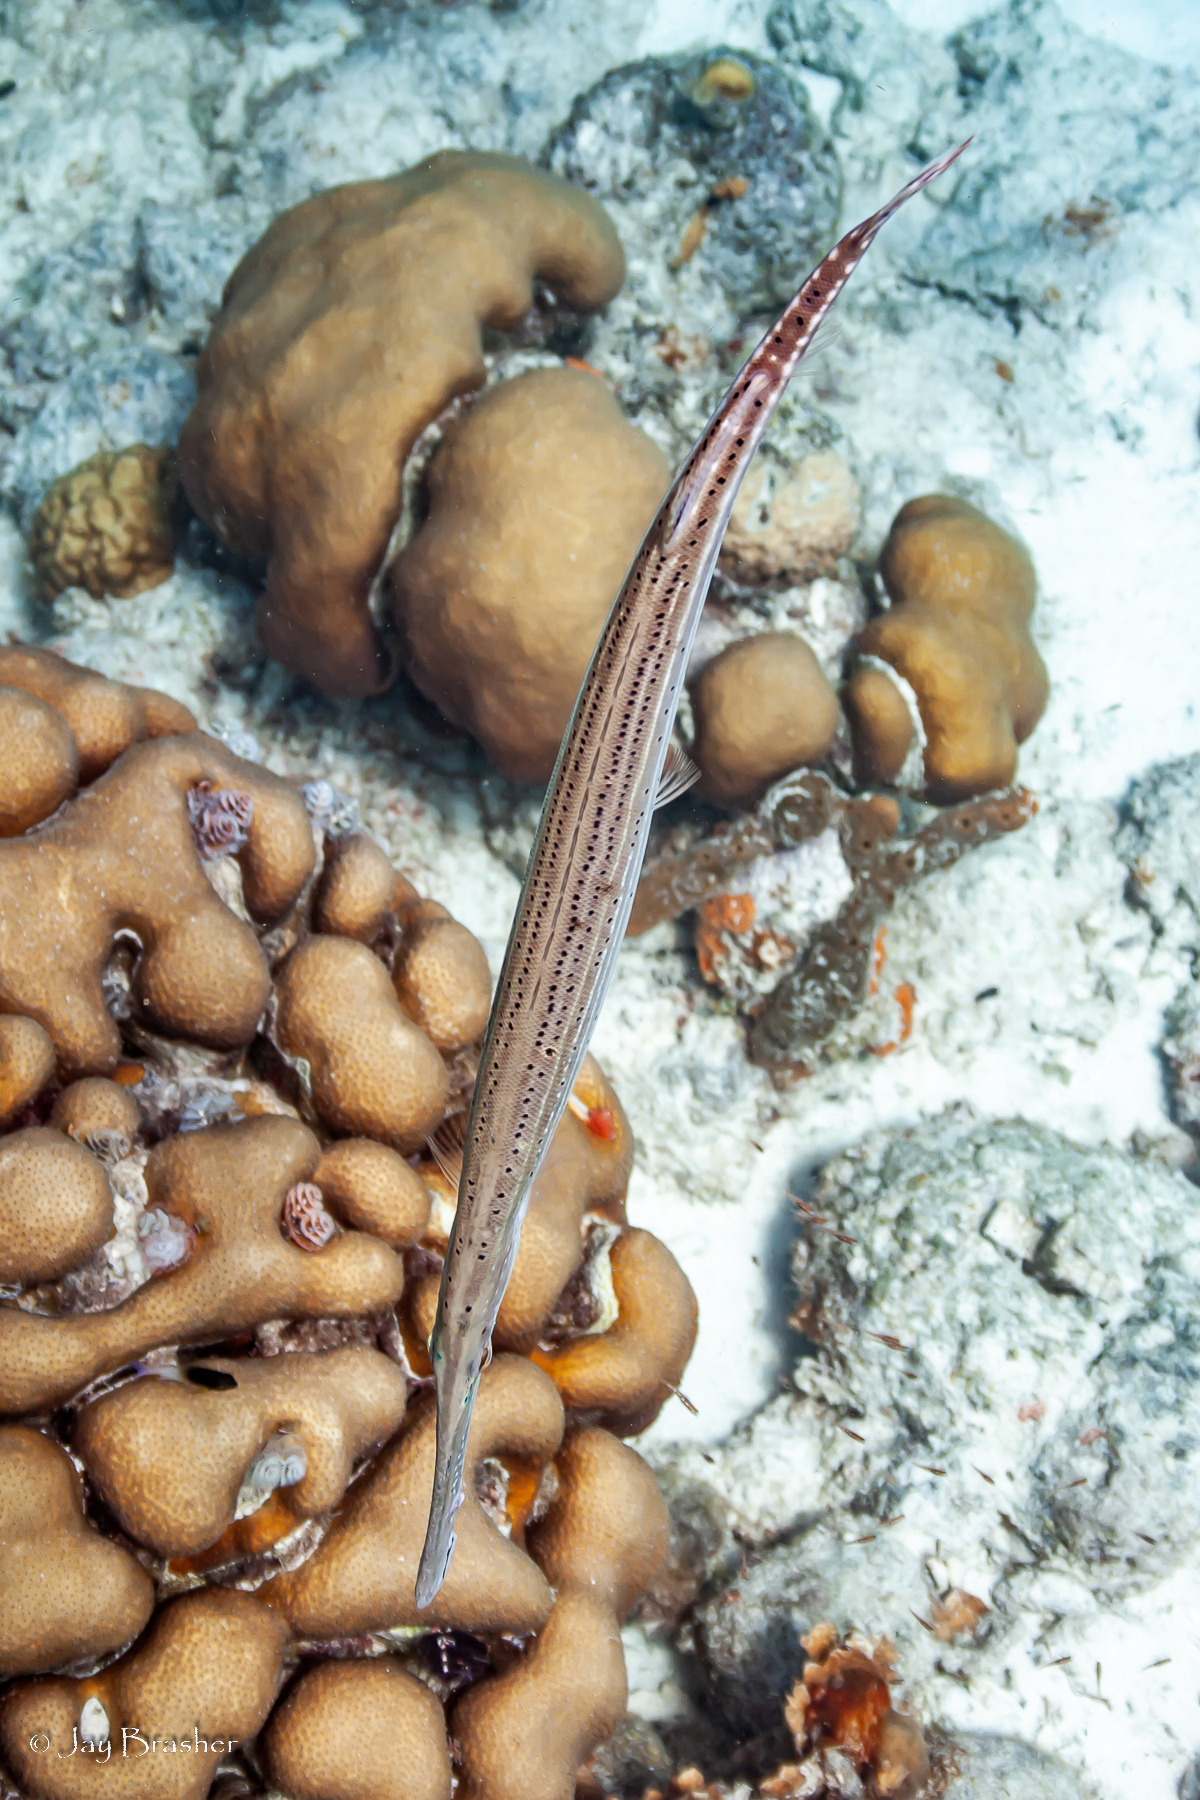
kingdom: Animalia
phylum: Chordata
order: Syngnathiformes
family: Aulostomidae
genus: Aulostomus
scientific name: Aulostomus maculatus
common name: West atlantic trumpetfish
